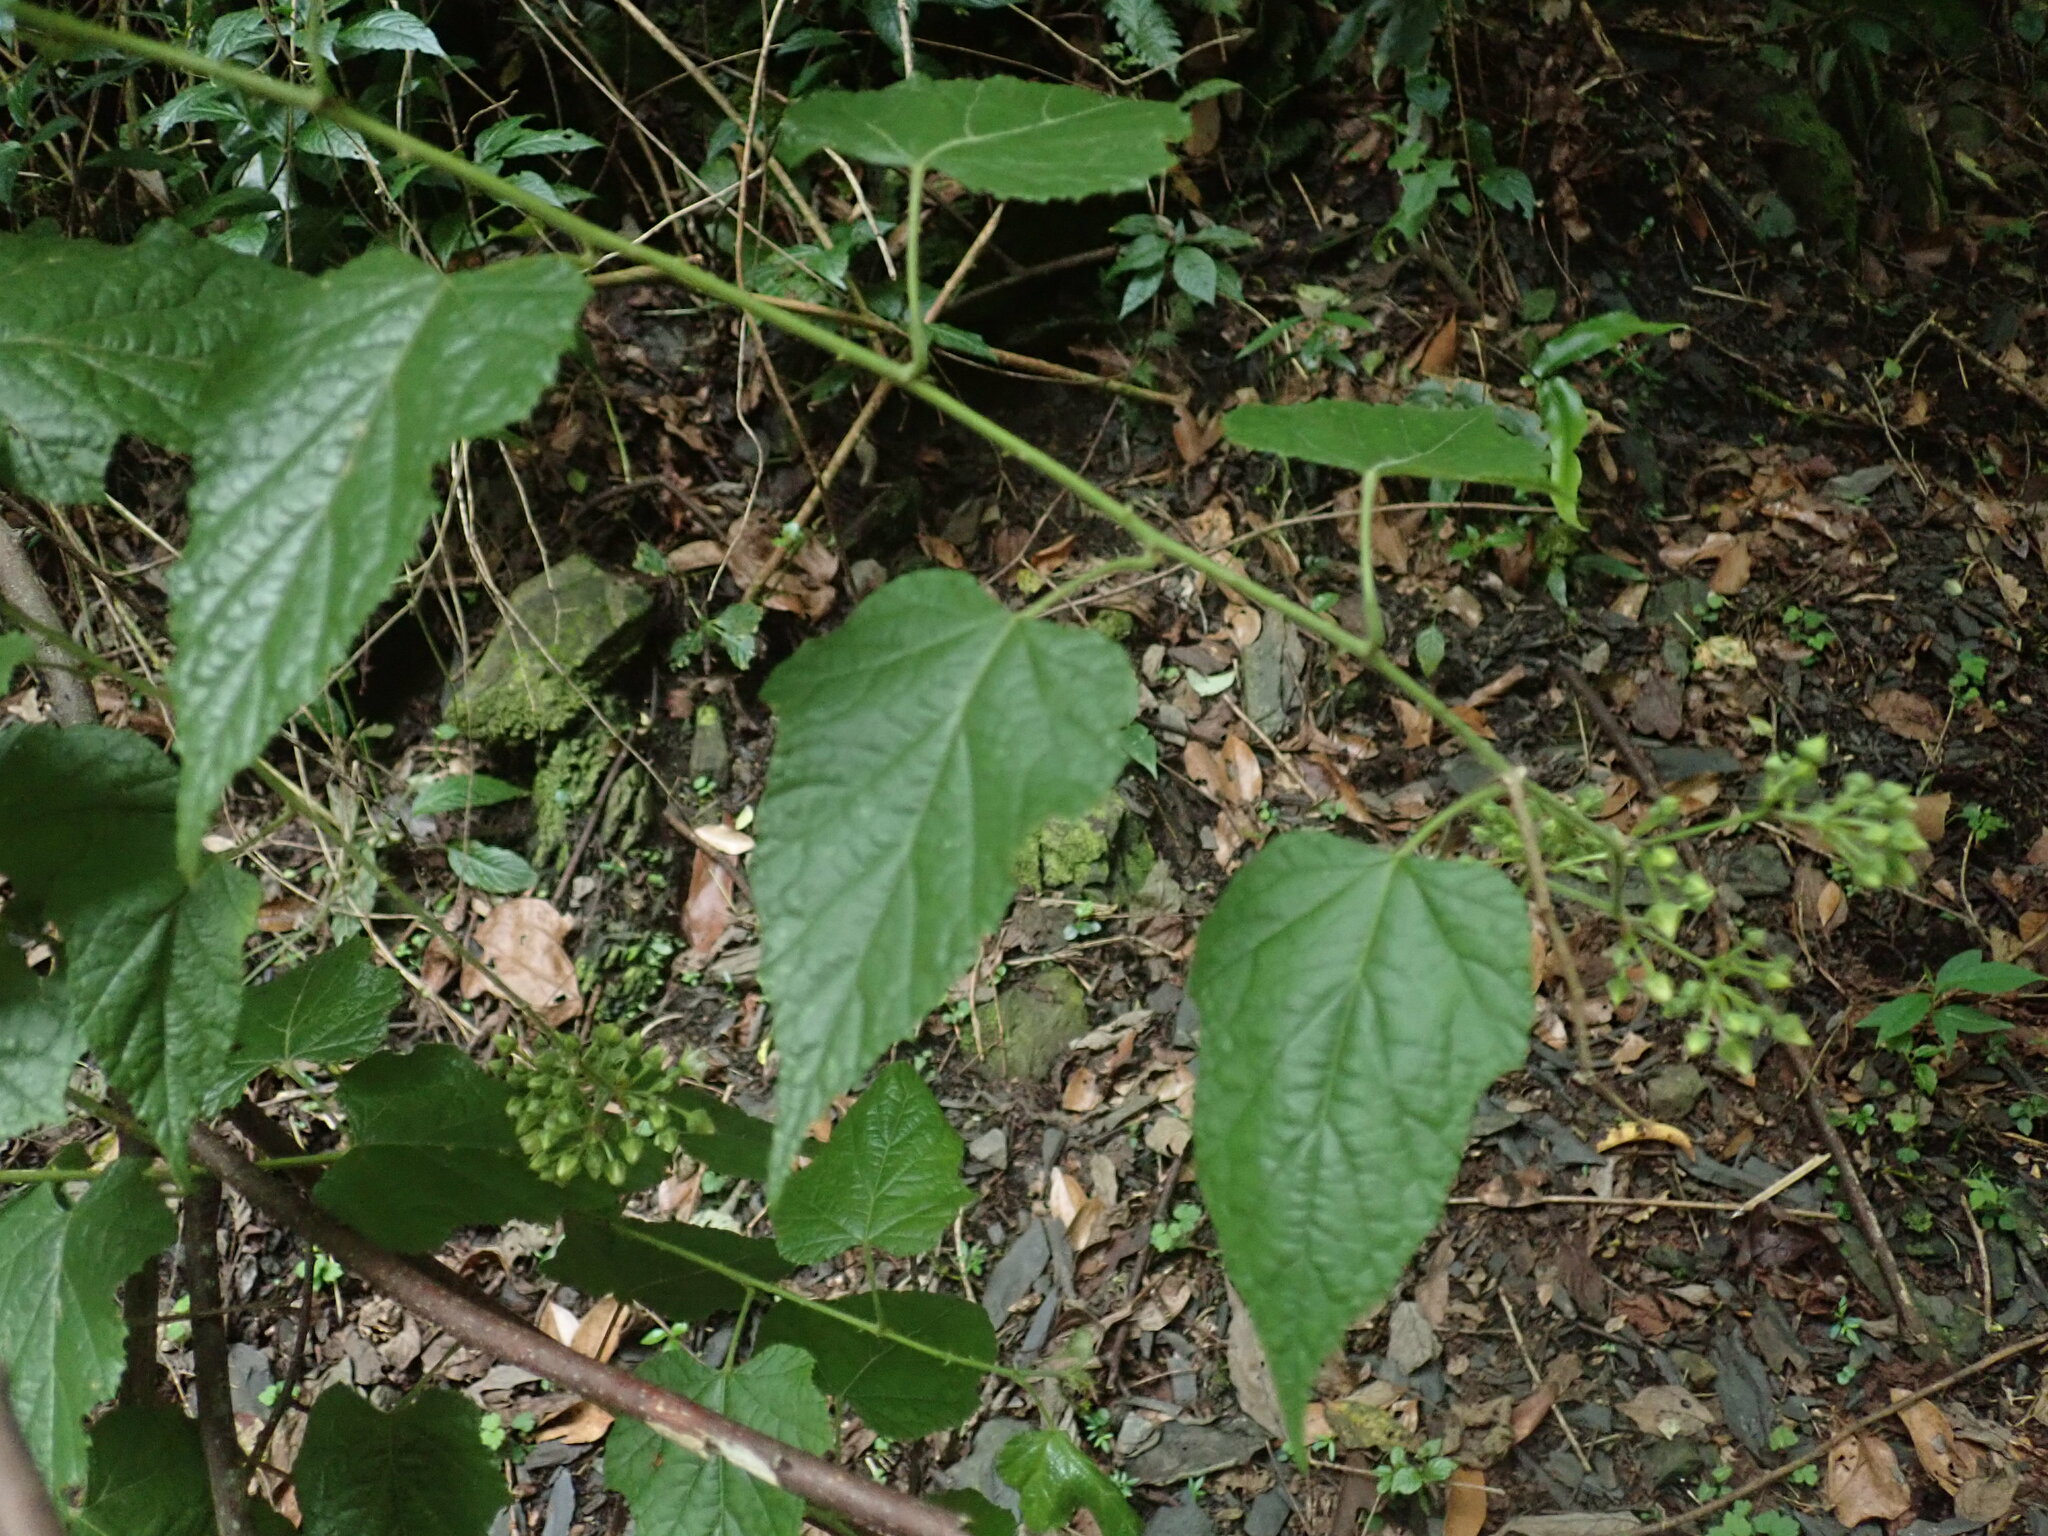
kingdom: Plantae
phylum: Tracheophyta
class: Magnoliopsida
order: Rosales
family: Rosaceae
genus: Rubus
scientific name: Rubus lambertianus
